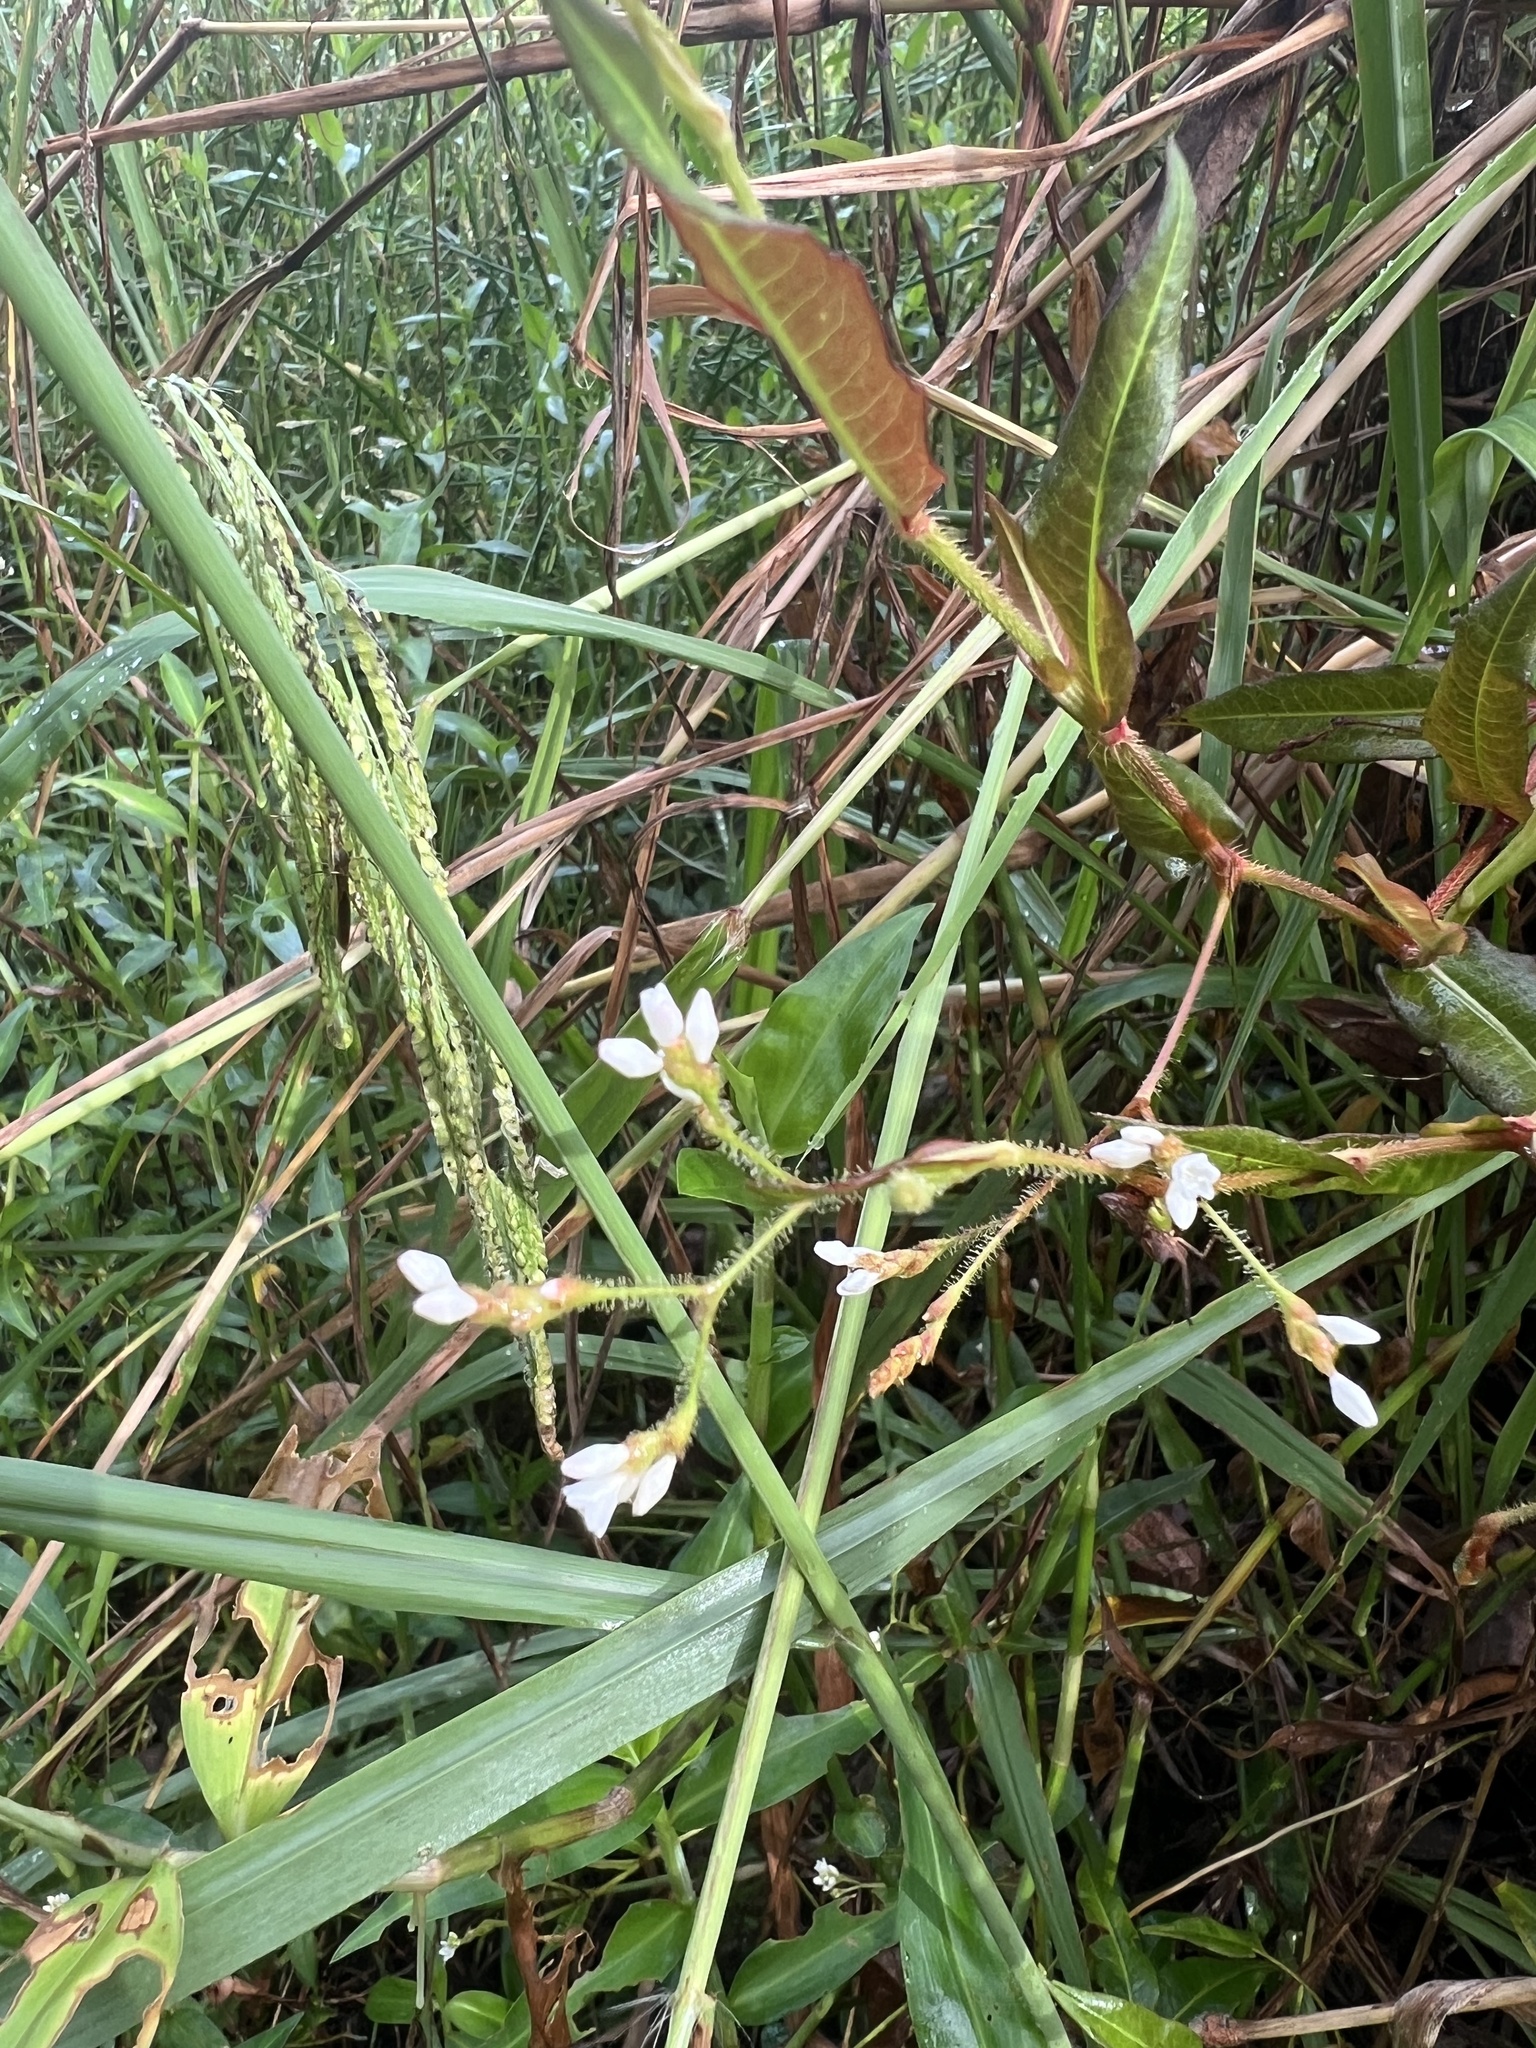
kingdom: Plantae
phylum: Tracheophyta
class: Magnoliopsida
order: Caryophyllales
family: Polygonaceae
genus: Persicaria
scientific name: Persicaria strigosa
